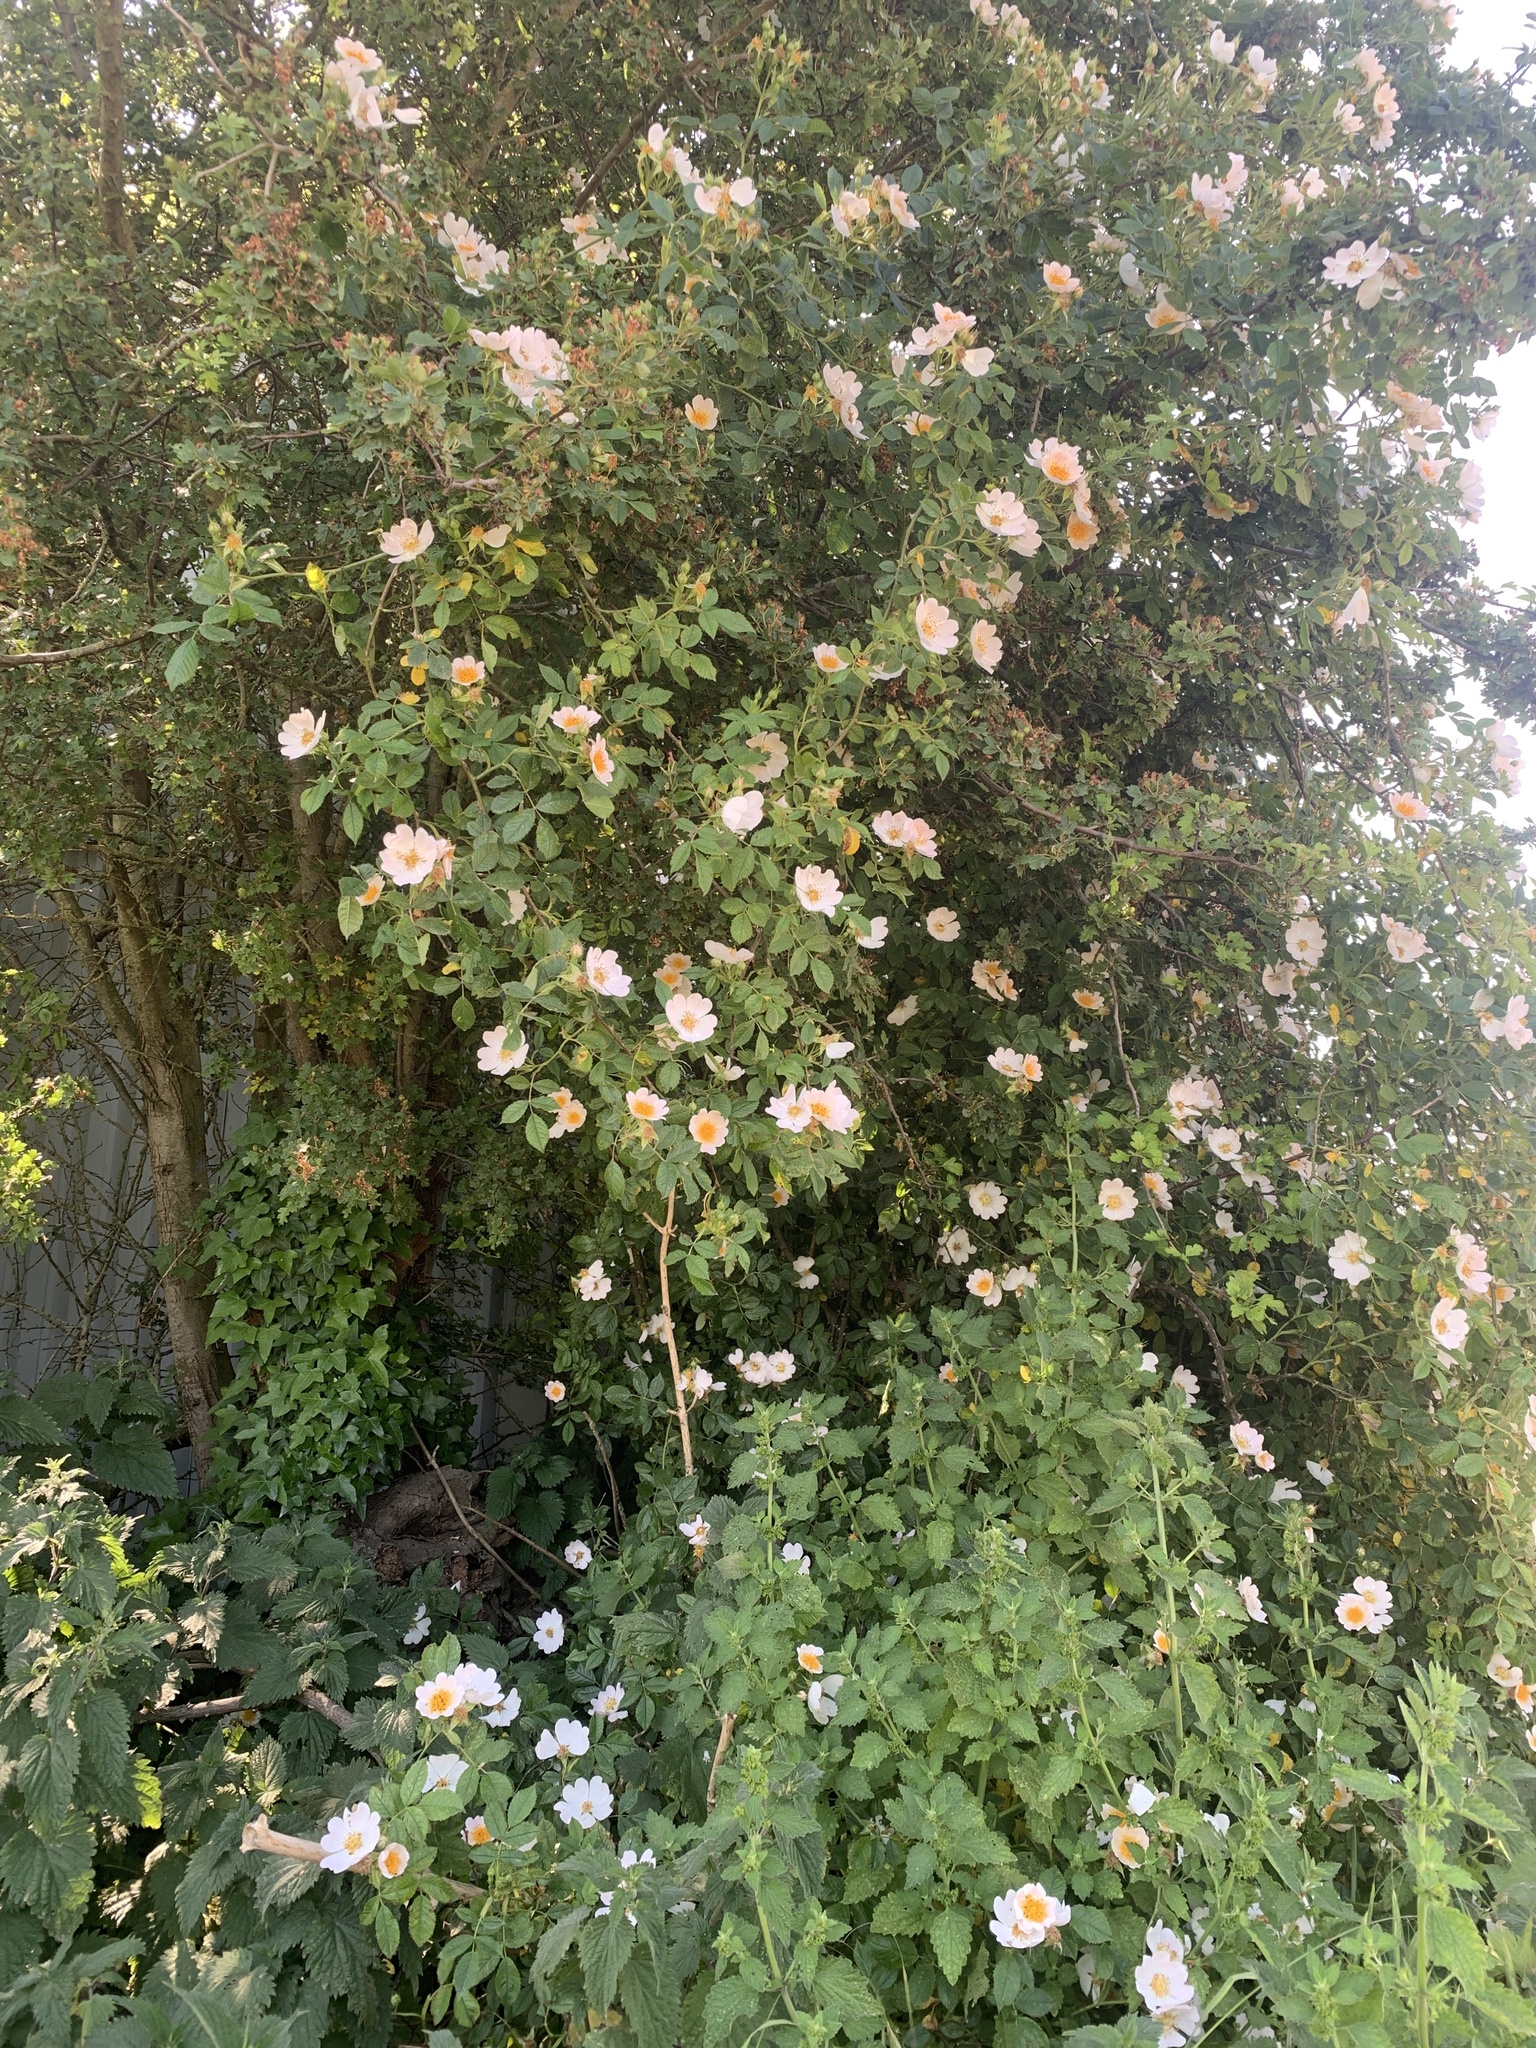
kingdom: Plantae
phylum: Tracheophyta
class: Magnoliopsida
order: Rosales
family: Rosaceae
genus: Rosa
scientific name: Rosa canina
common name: Dog rose
